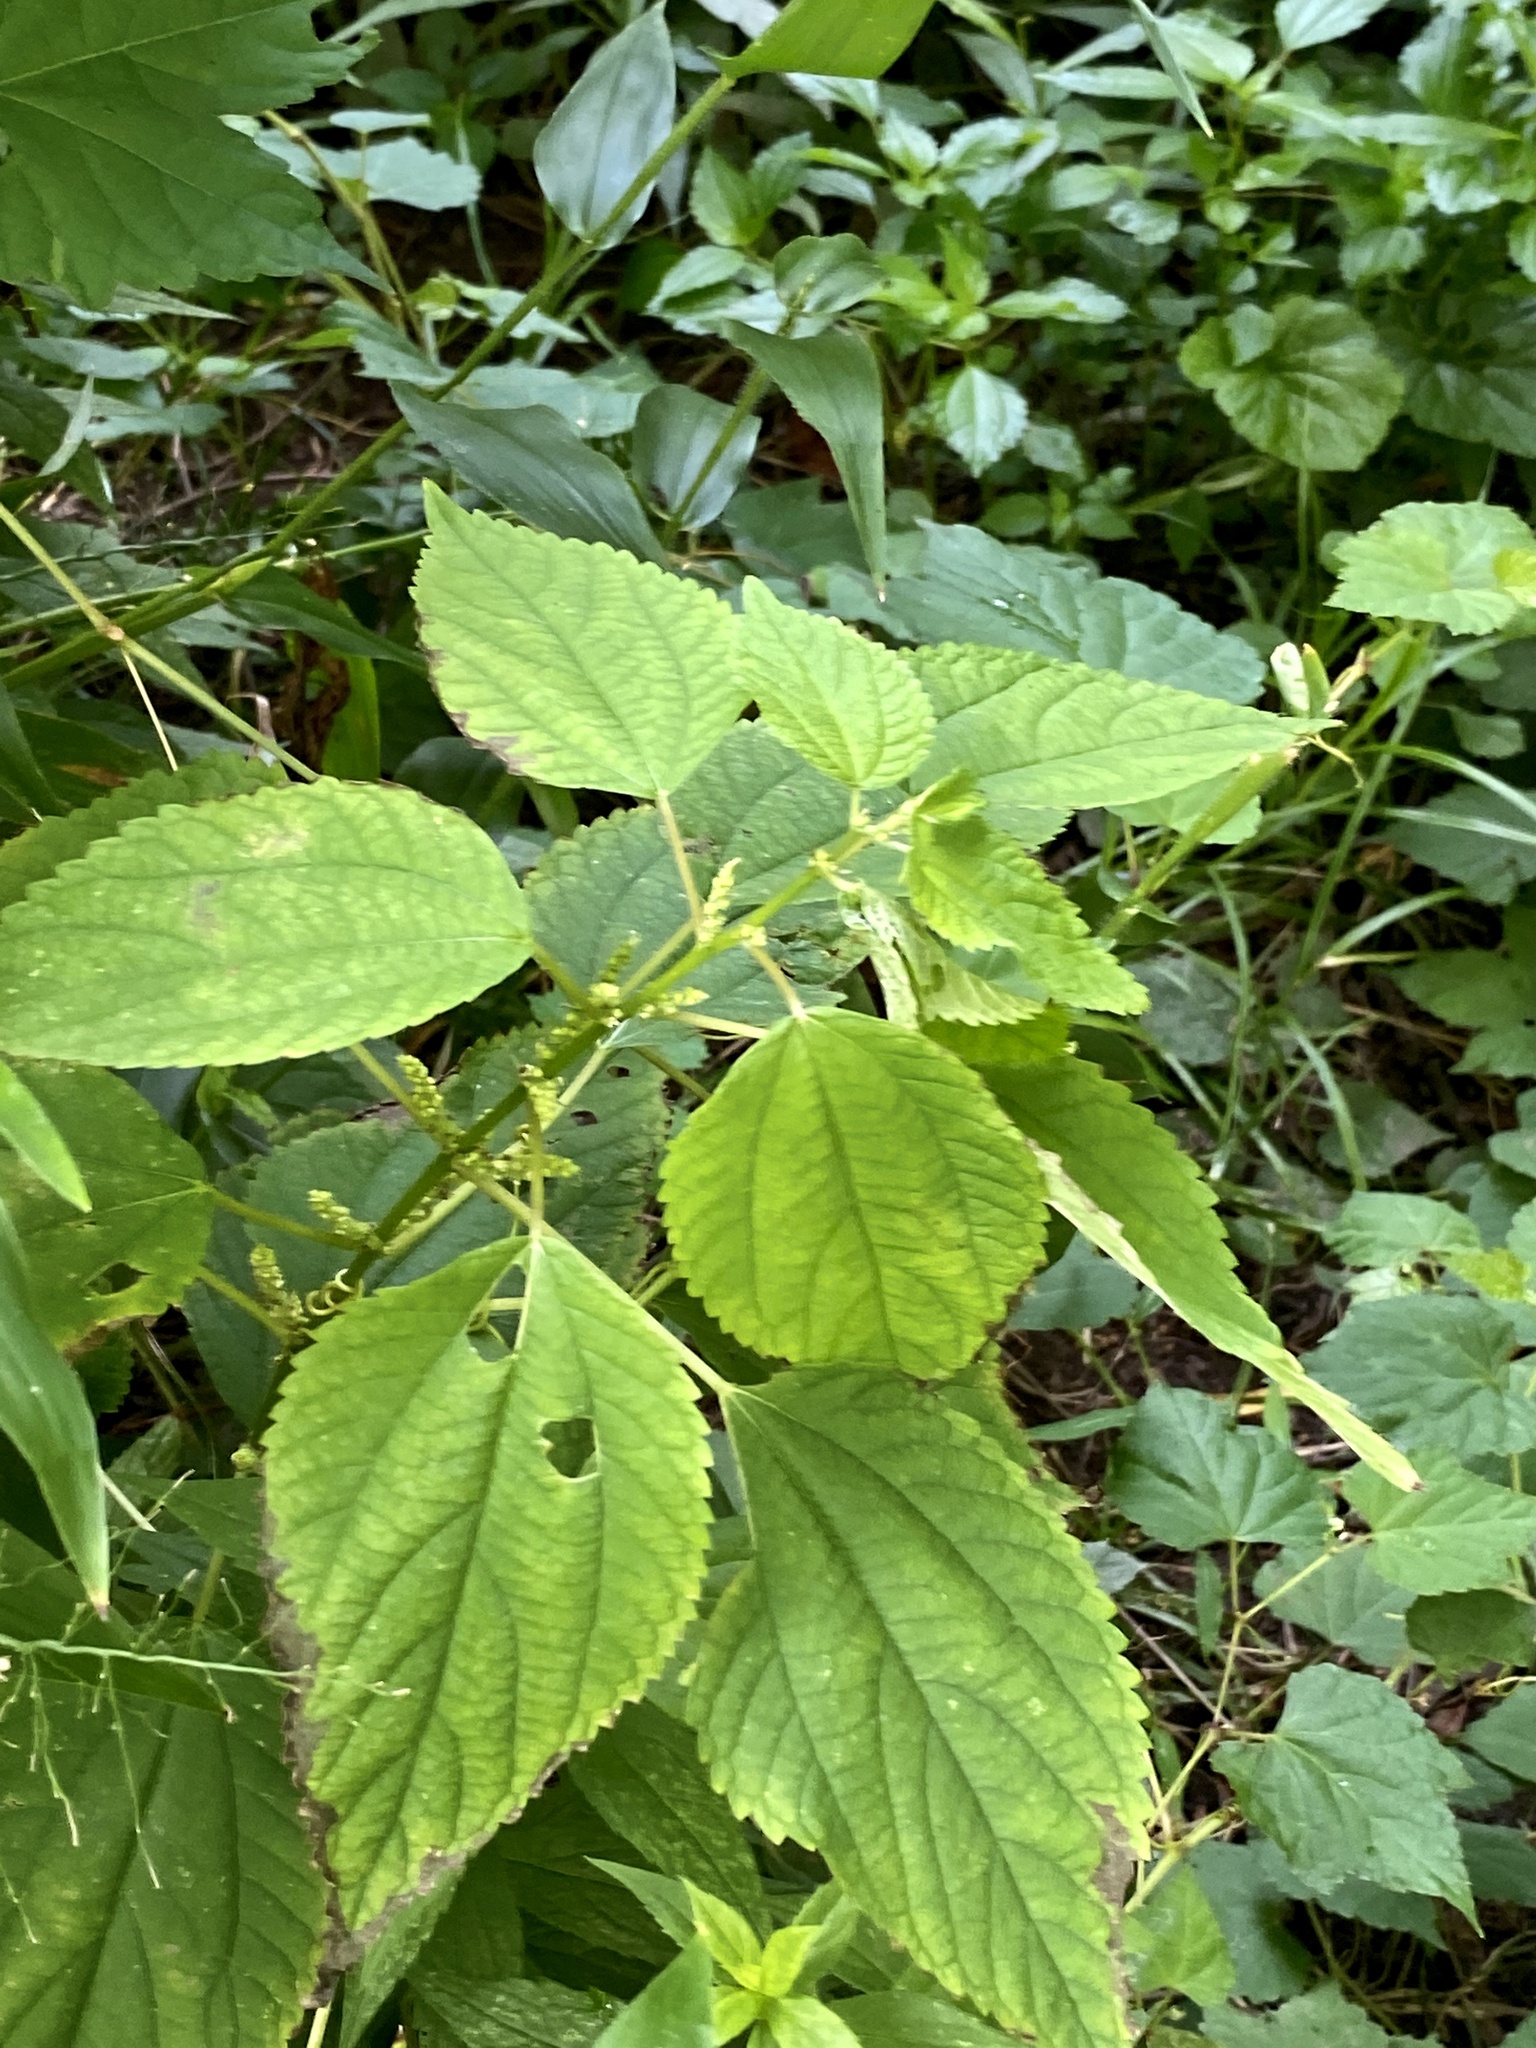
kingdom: Plantae
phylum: Tracheophyta
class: Magnoliopsida
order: Rosales
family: Urticaceae
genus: Boehmeria
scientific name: Boehmeria cylindrica
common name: Bog-hemp
